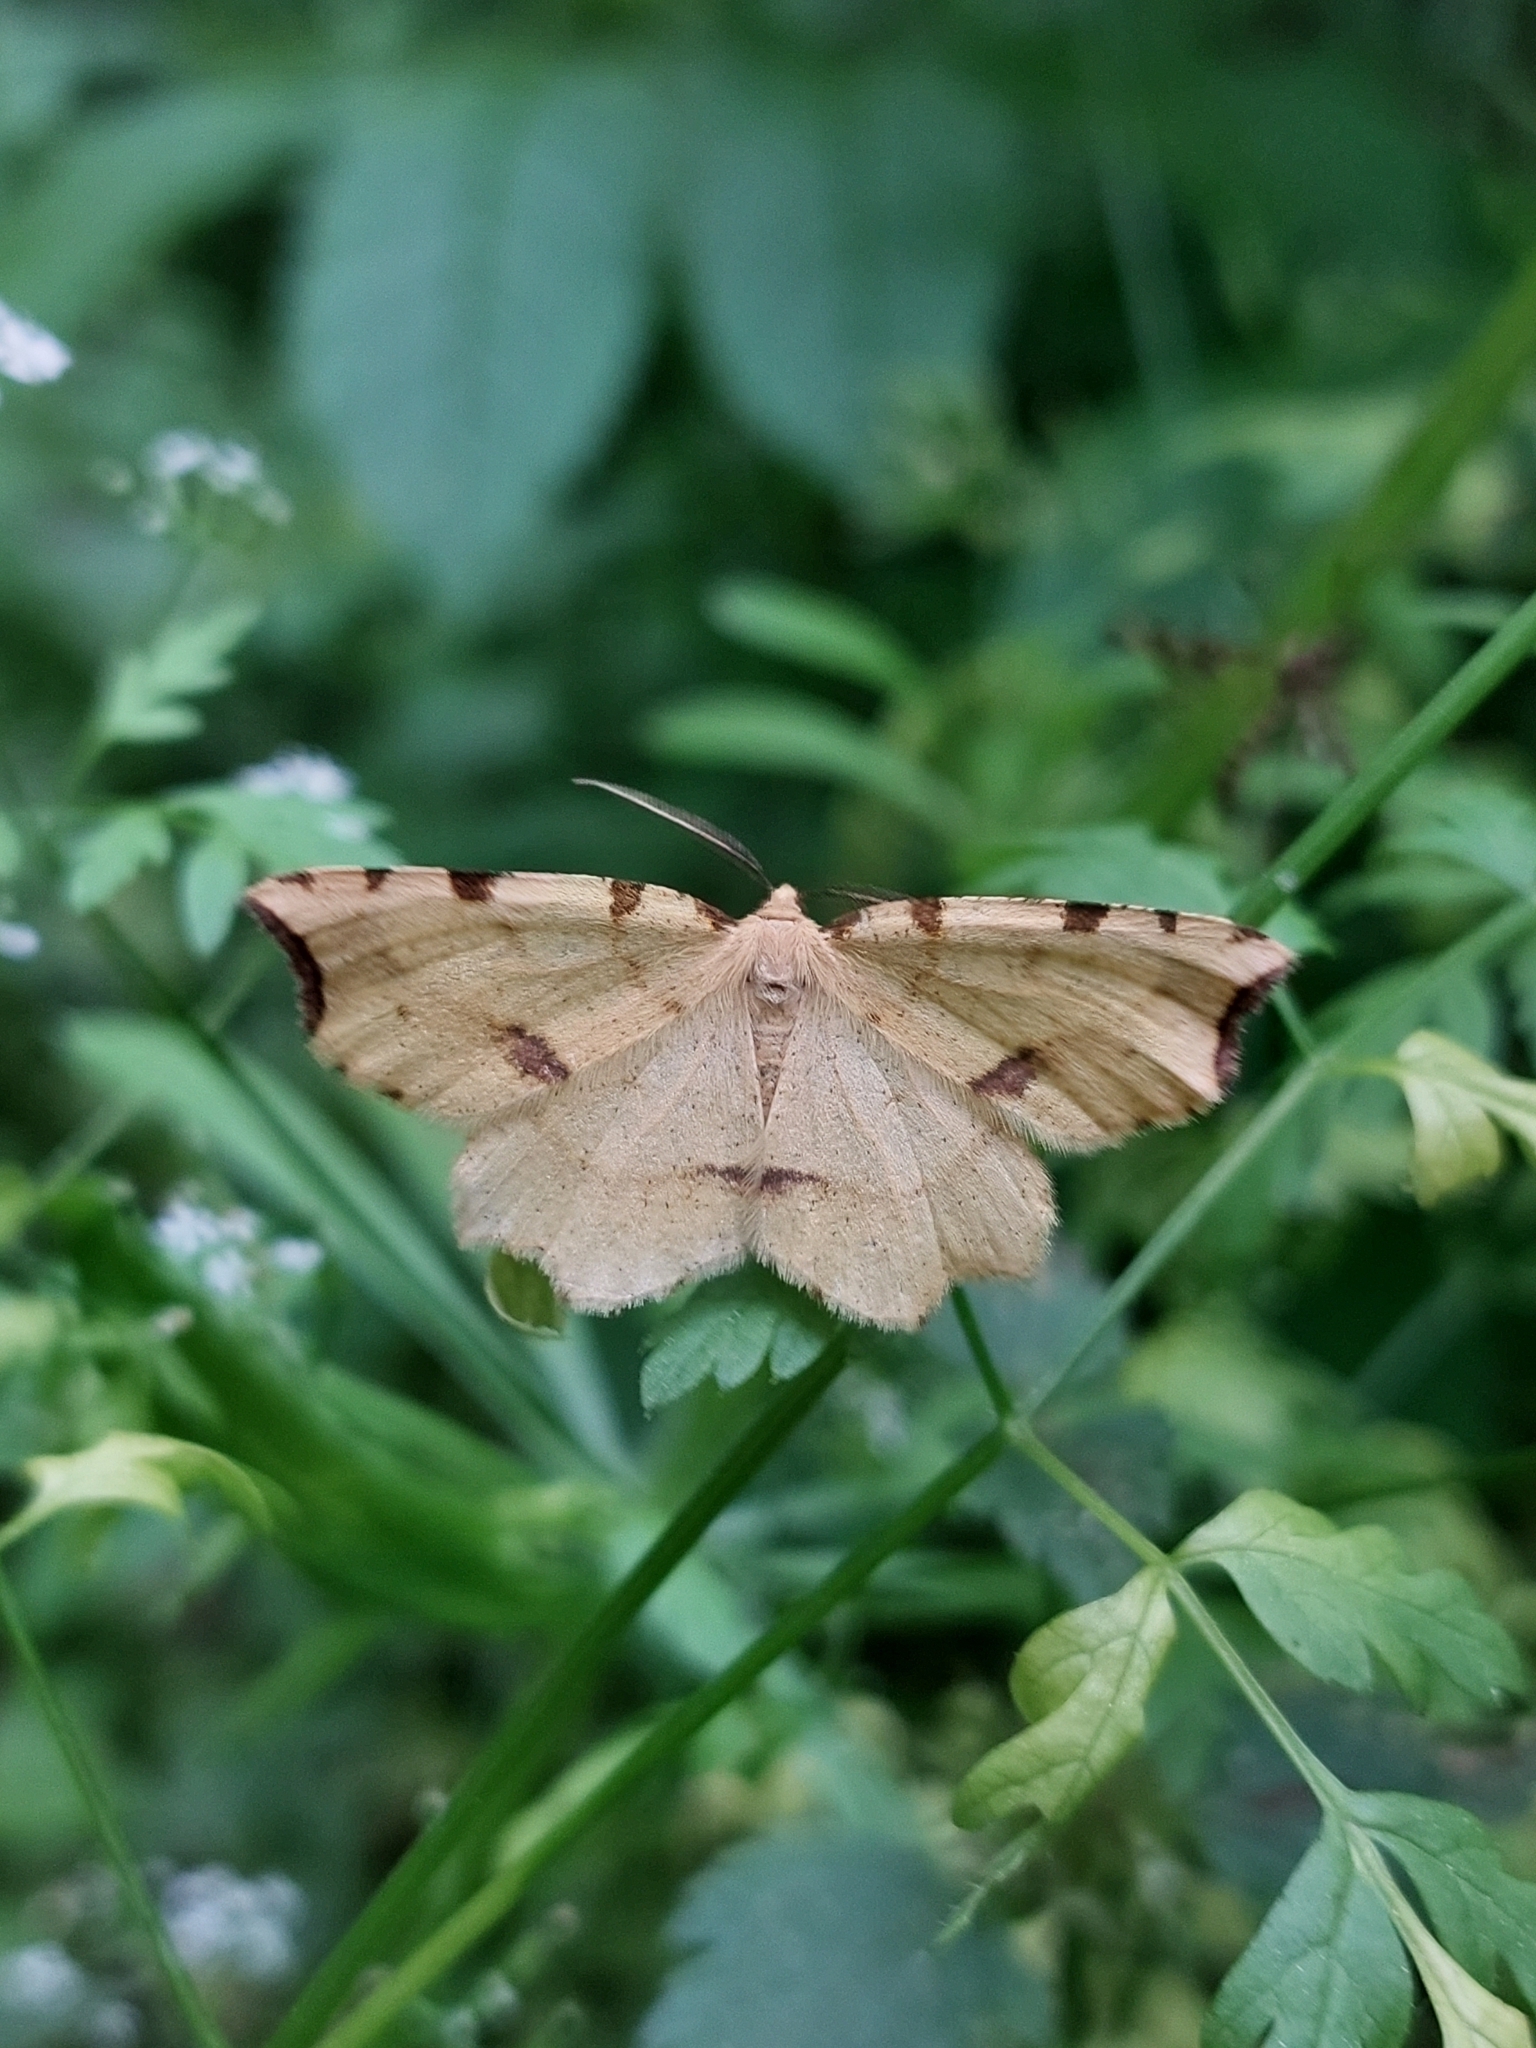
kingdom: Animalia
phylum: Arthropoda
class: Insecta
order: Lepidoptera
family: Geometridae
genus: Therapis
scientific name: Therapis flavicaria
